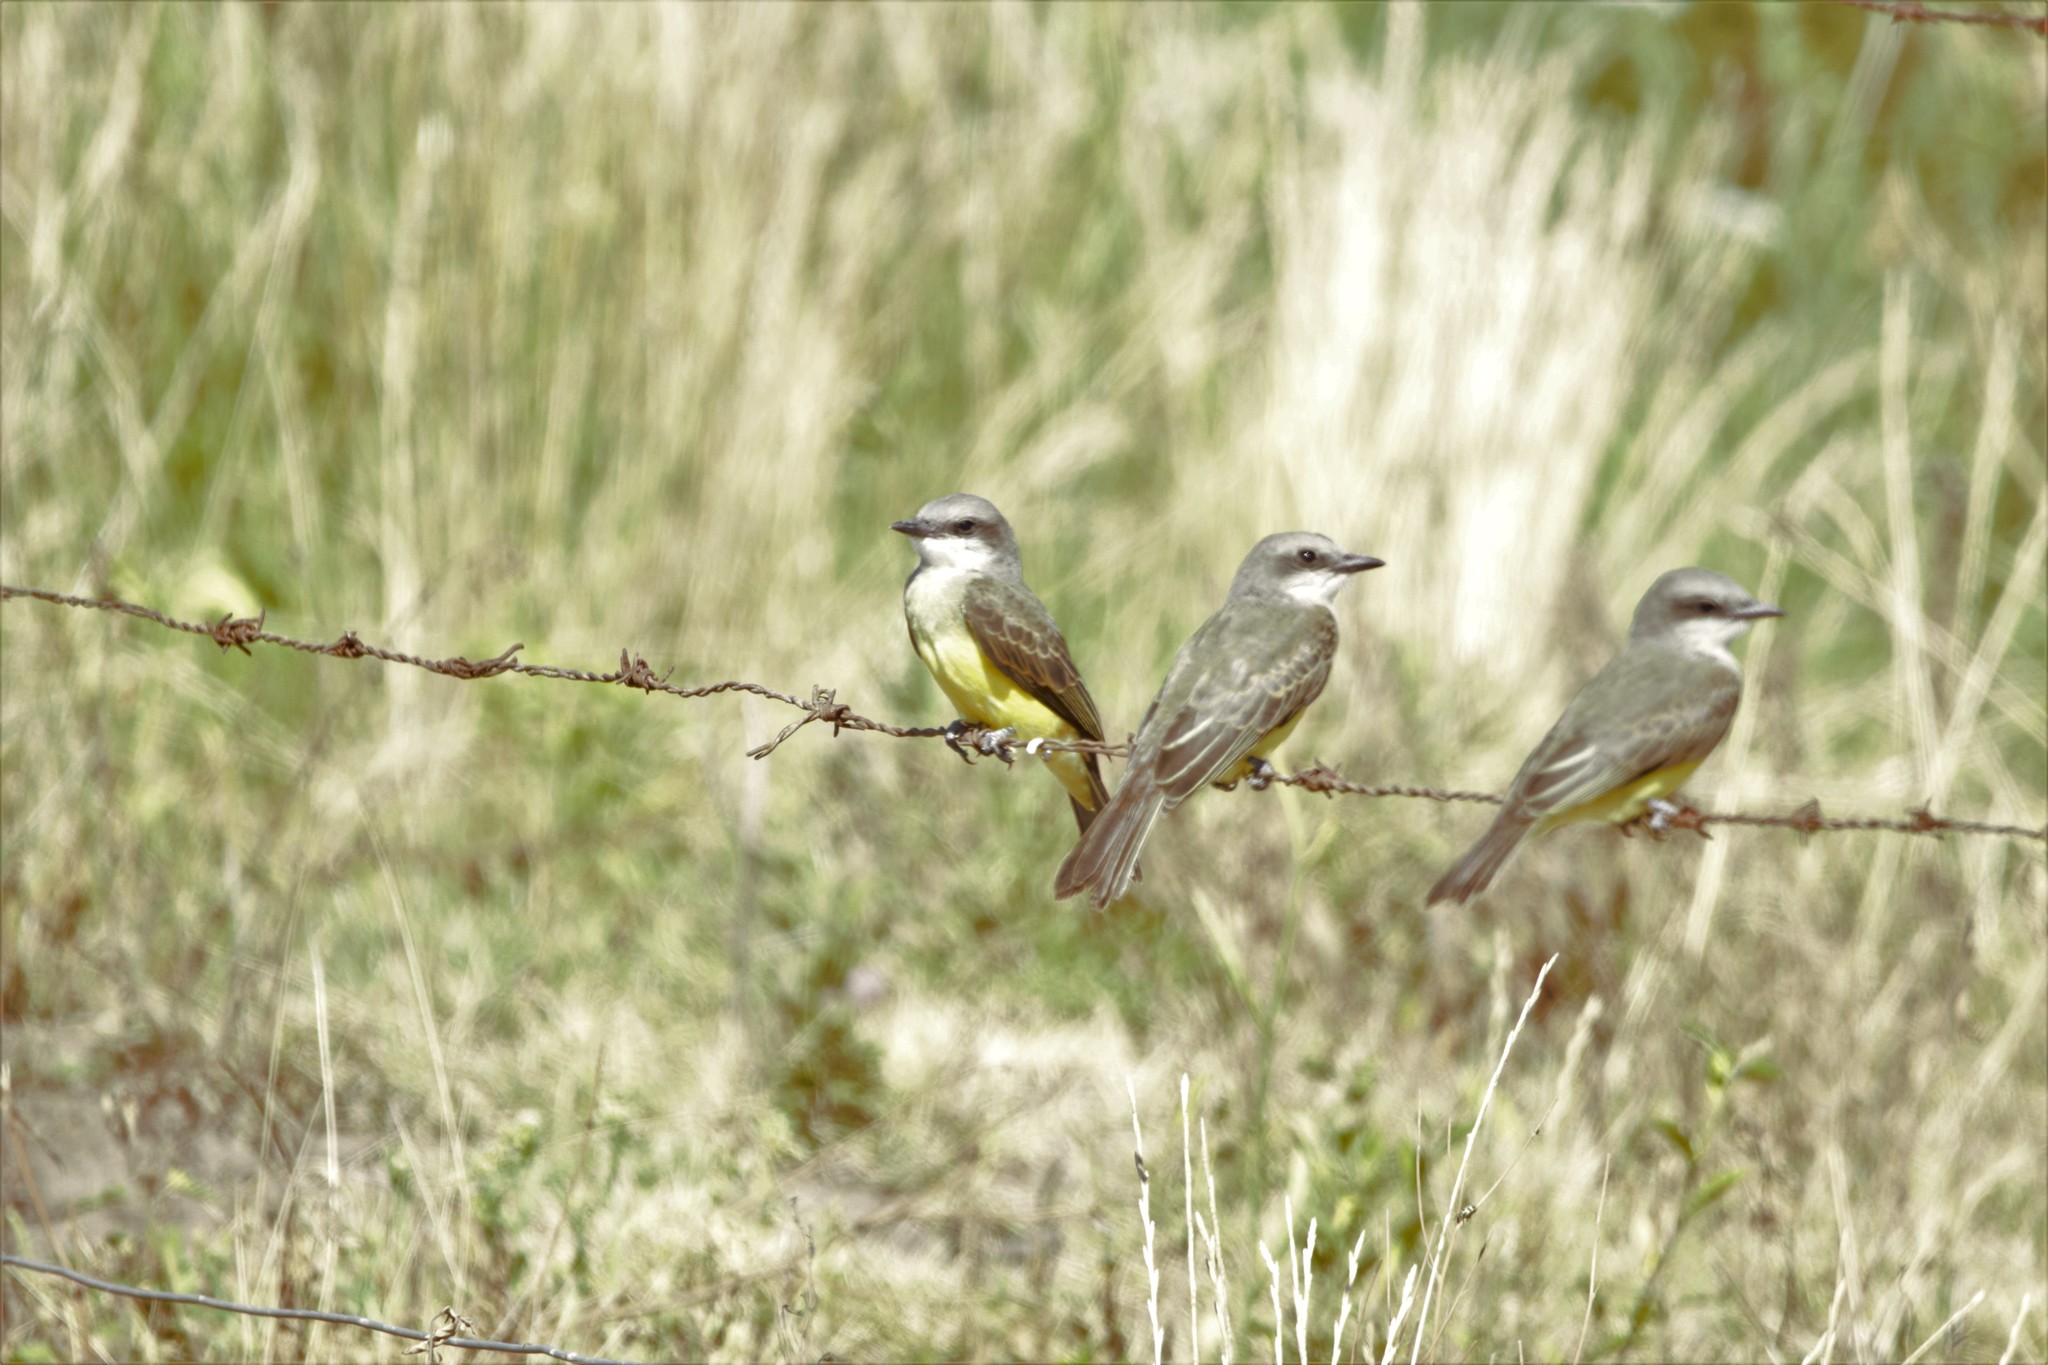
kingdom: Animalia
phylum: Chordata
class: Aves
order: Passeriformes
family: Tyrannidae
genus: Tyrannus
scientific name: Tyrannus melancholicus
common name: Tropical kingbird
